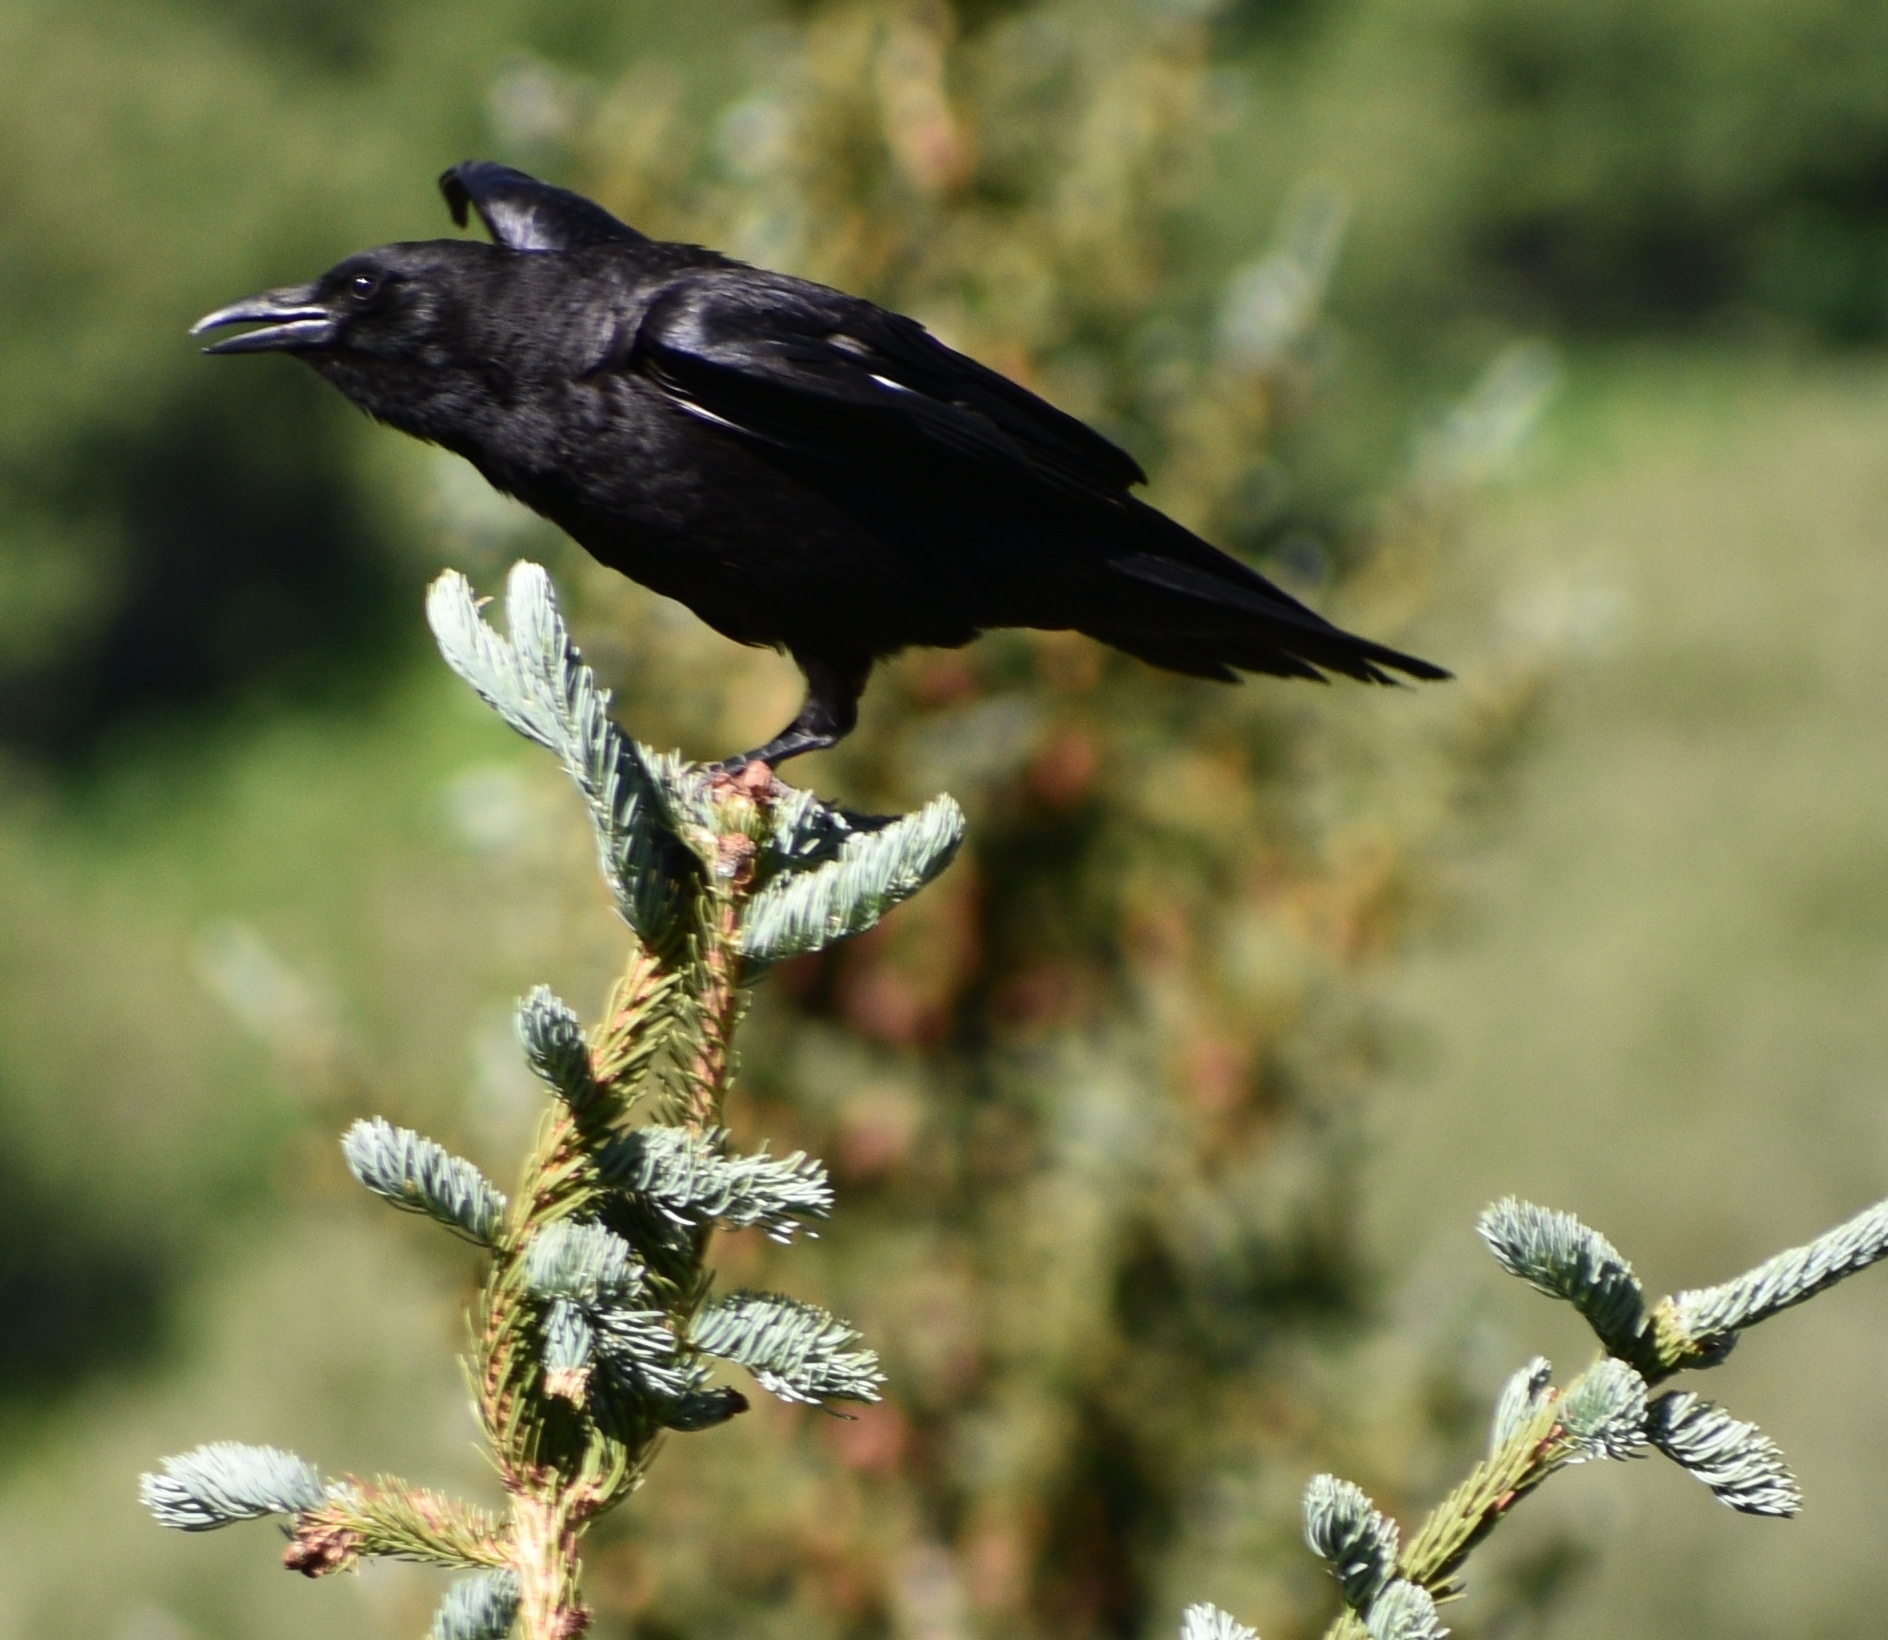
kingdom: Animalia
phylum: Chordata
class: Aves
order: Passeriformes
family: Corvidae
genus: Corvus
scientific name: Corvus brachyrhynchos
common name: American crow
